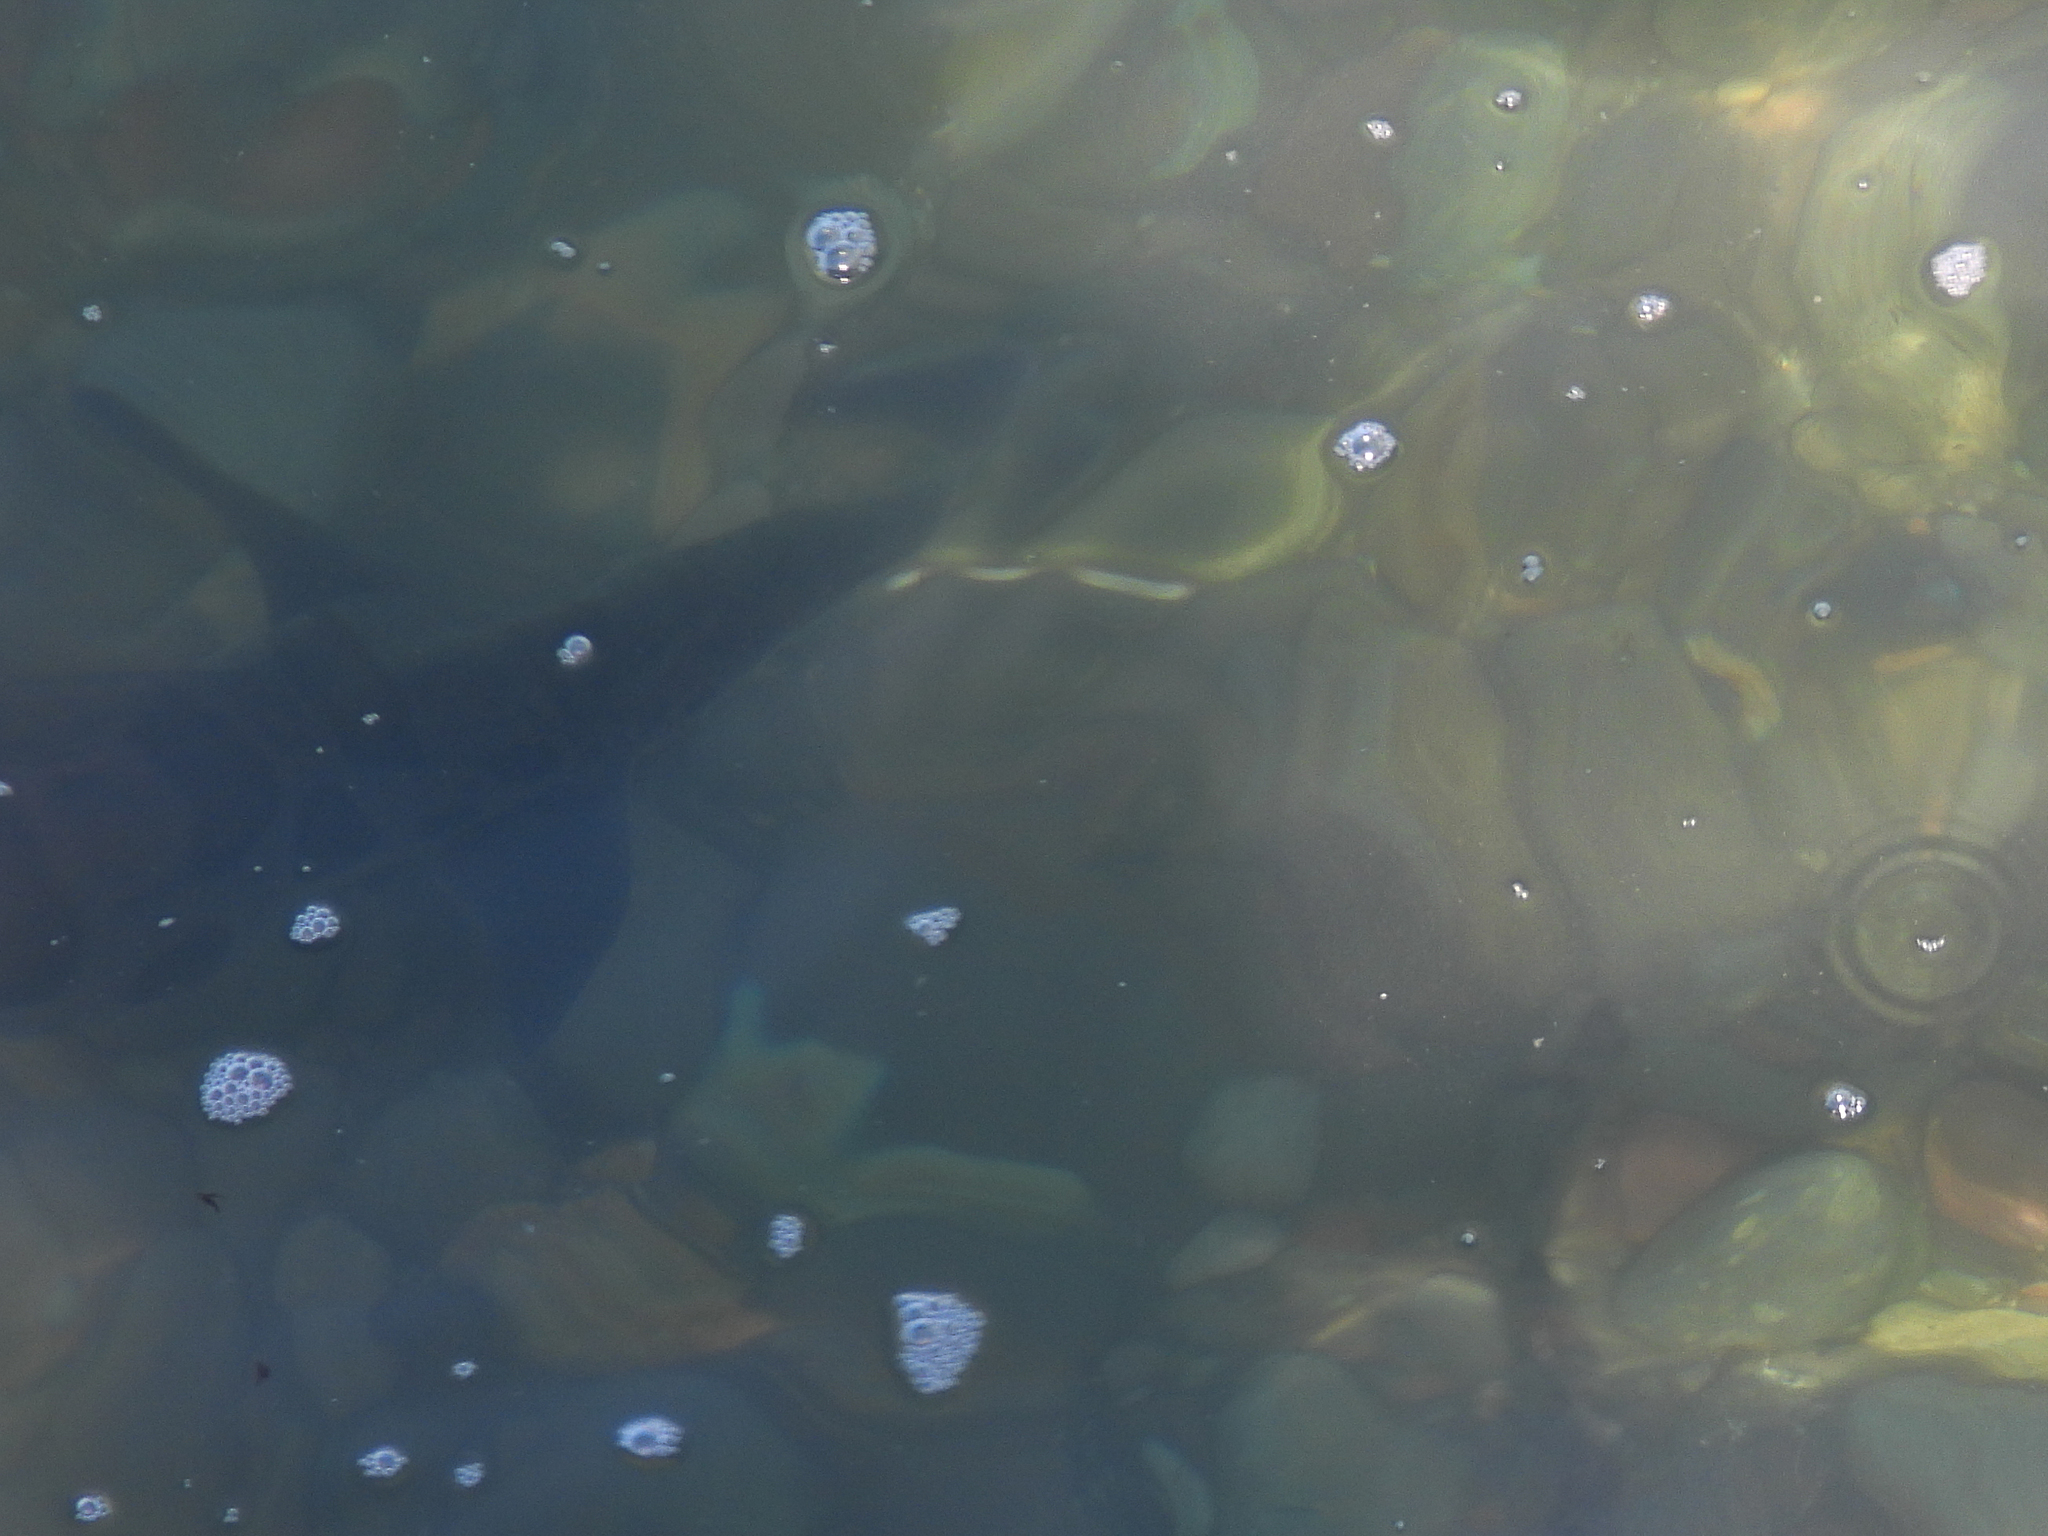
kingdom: Animalia
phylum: Chordata
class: Elasmobranchii
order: Carcharhiniformes
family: Triakidae
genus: Triakis
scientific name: Triakis semifasciata
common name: Leopard shark
